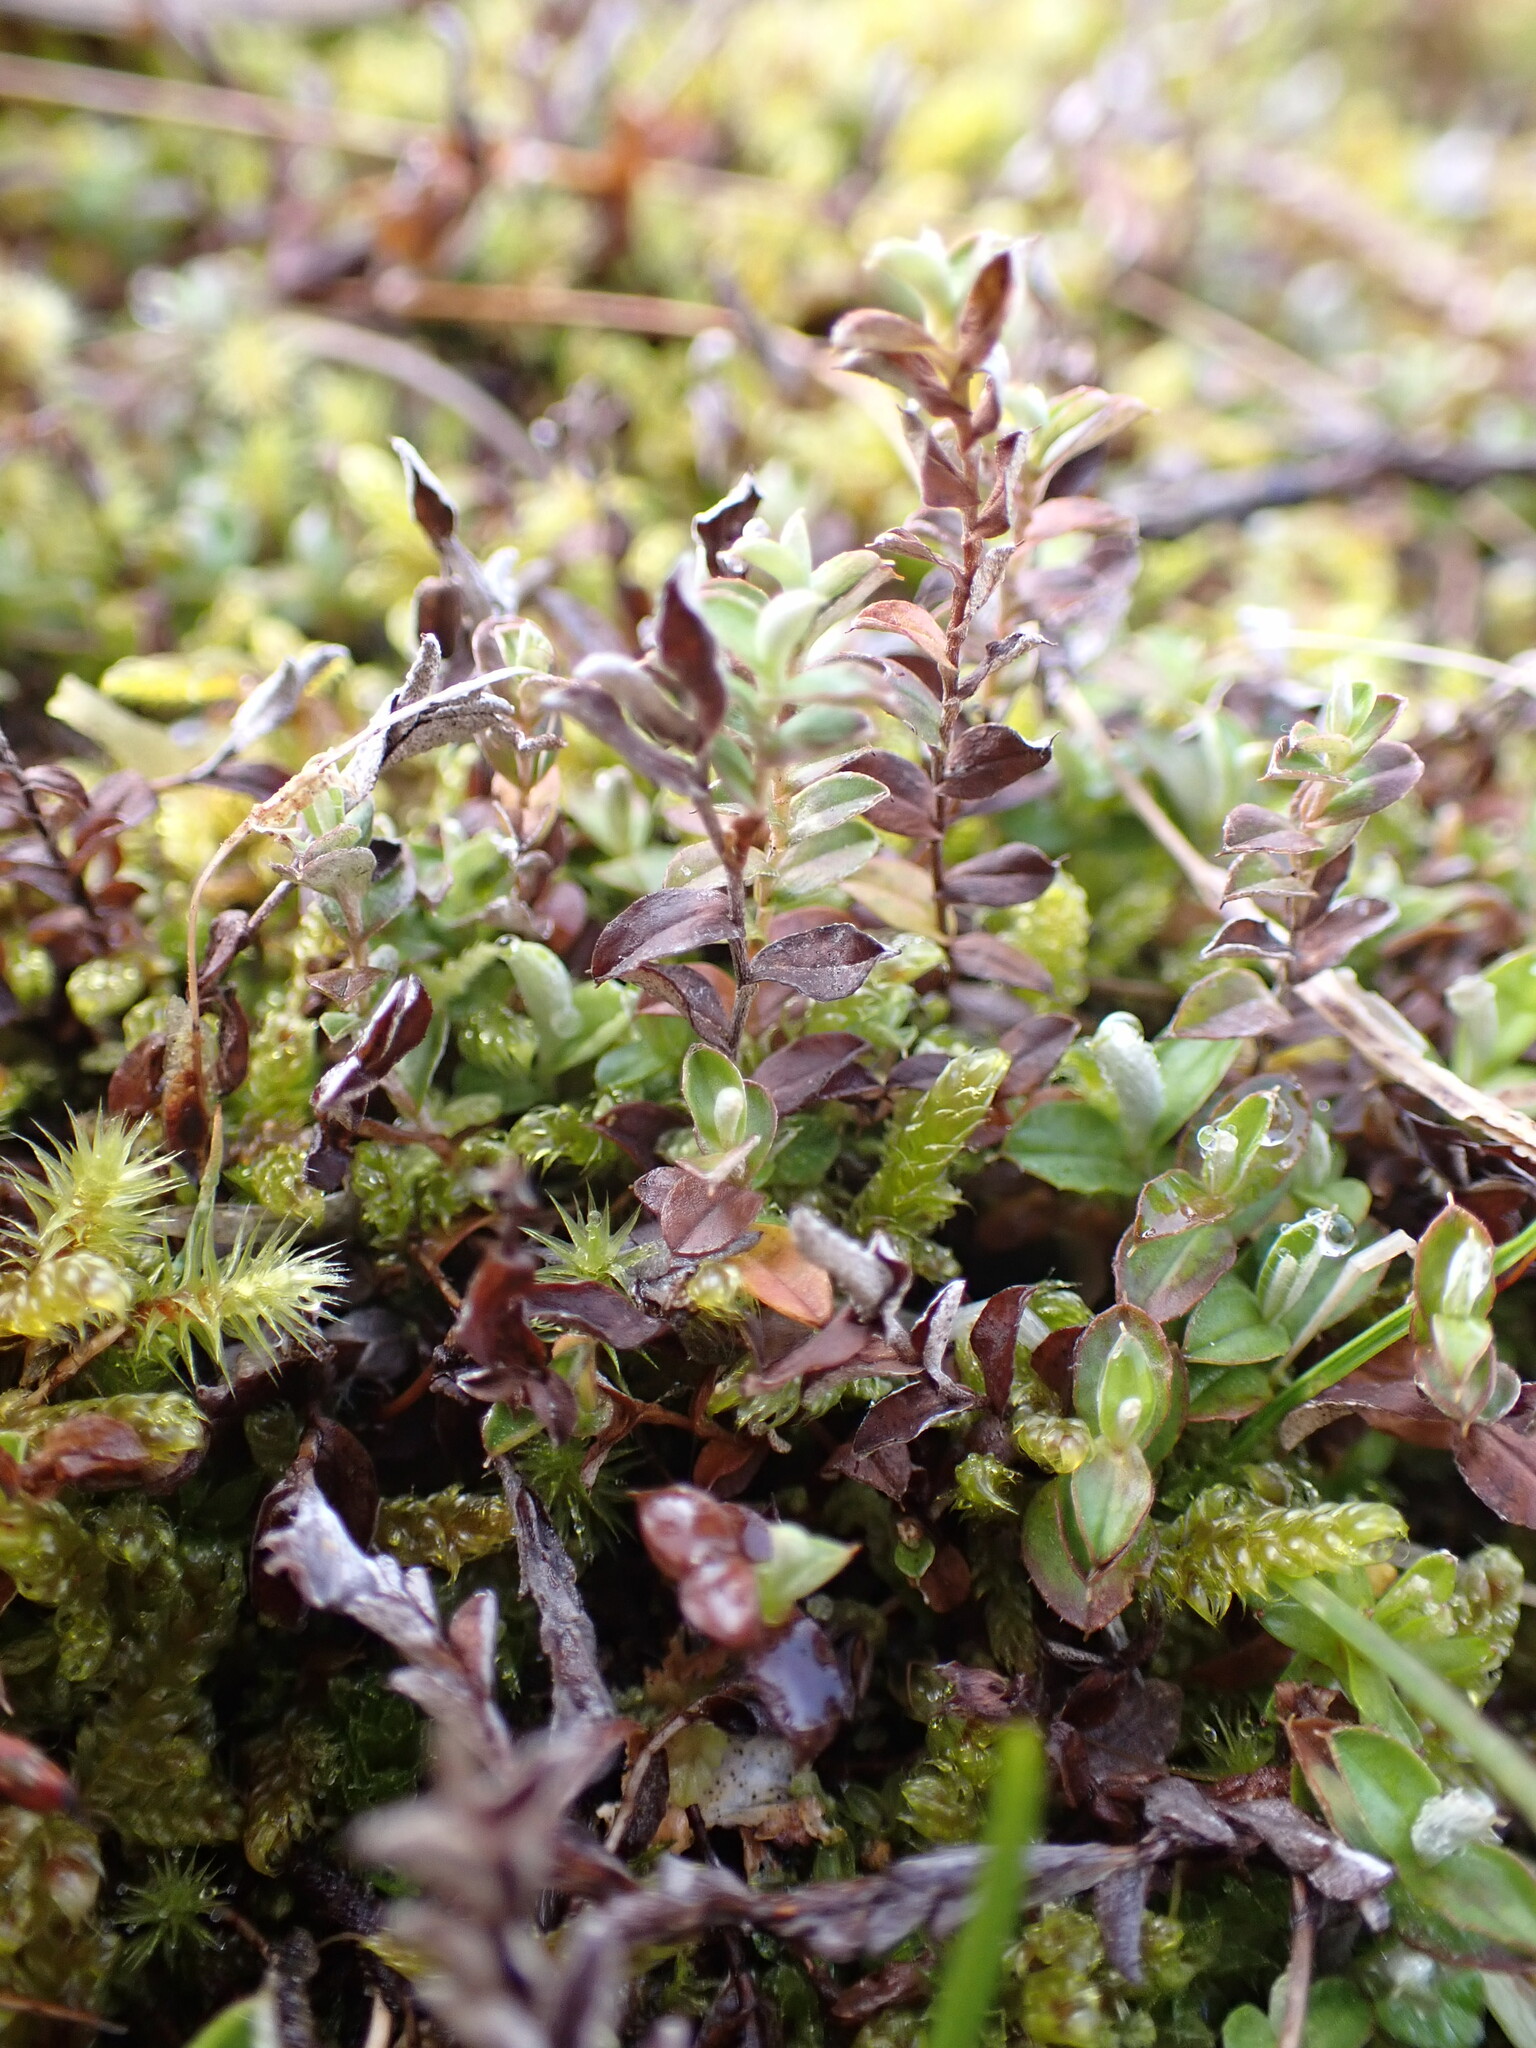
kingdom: Plantae
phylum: Tracheophyta
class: Magnoliopsida
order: Asterales
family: Asteraceae
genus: Helichrysum
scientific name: Helichrysum filicaule
